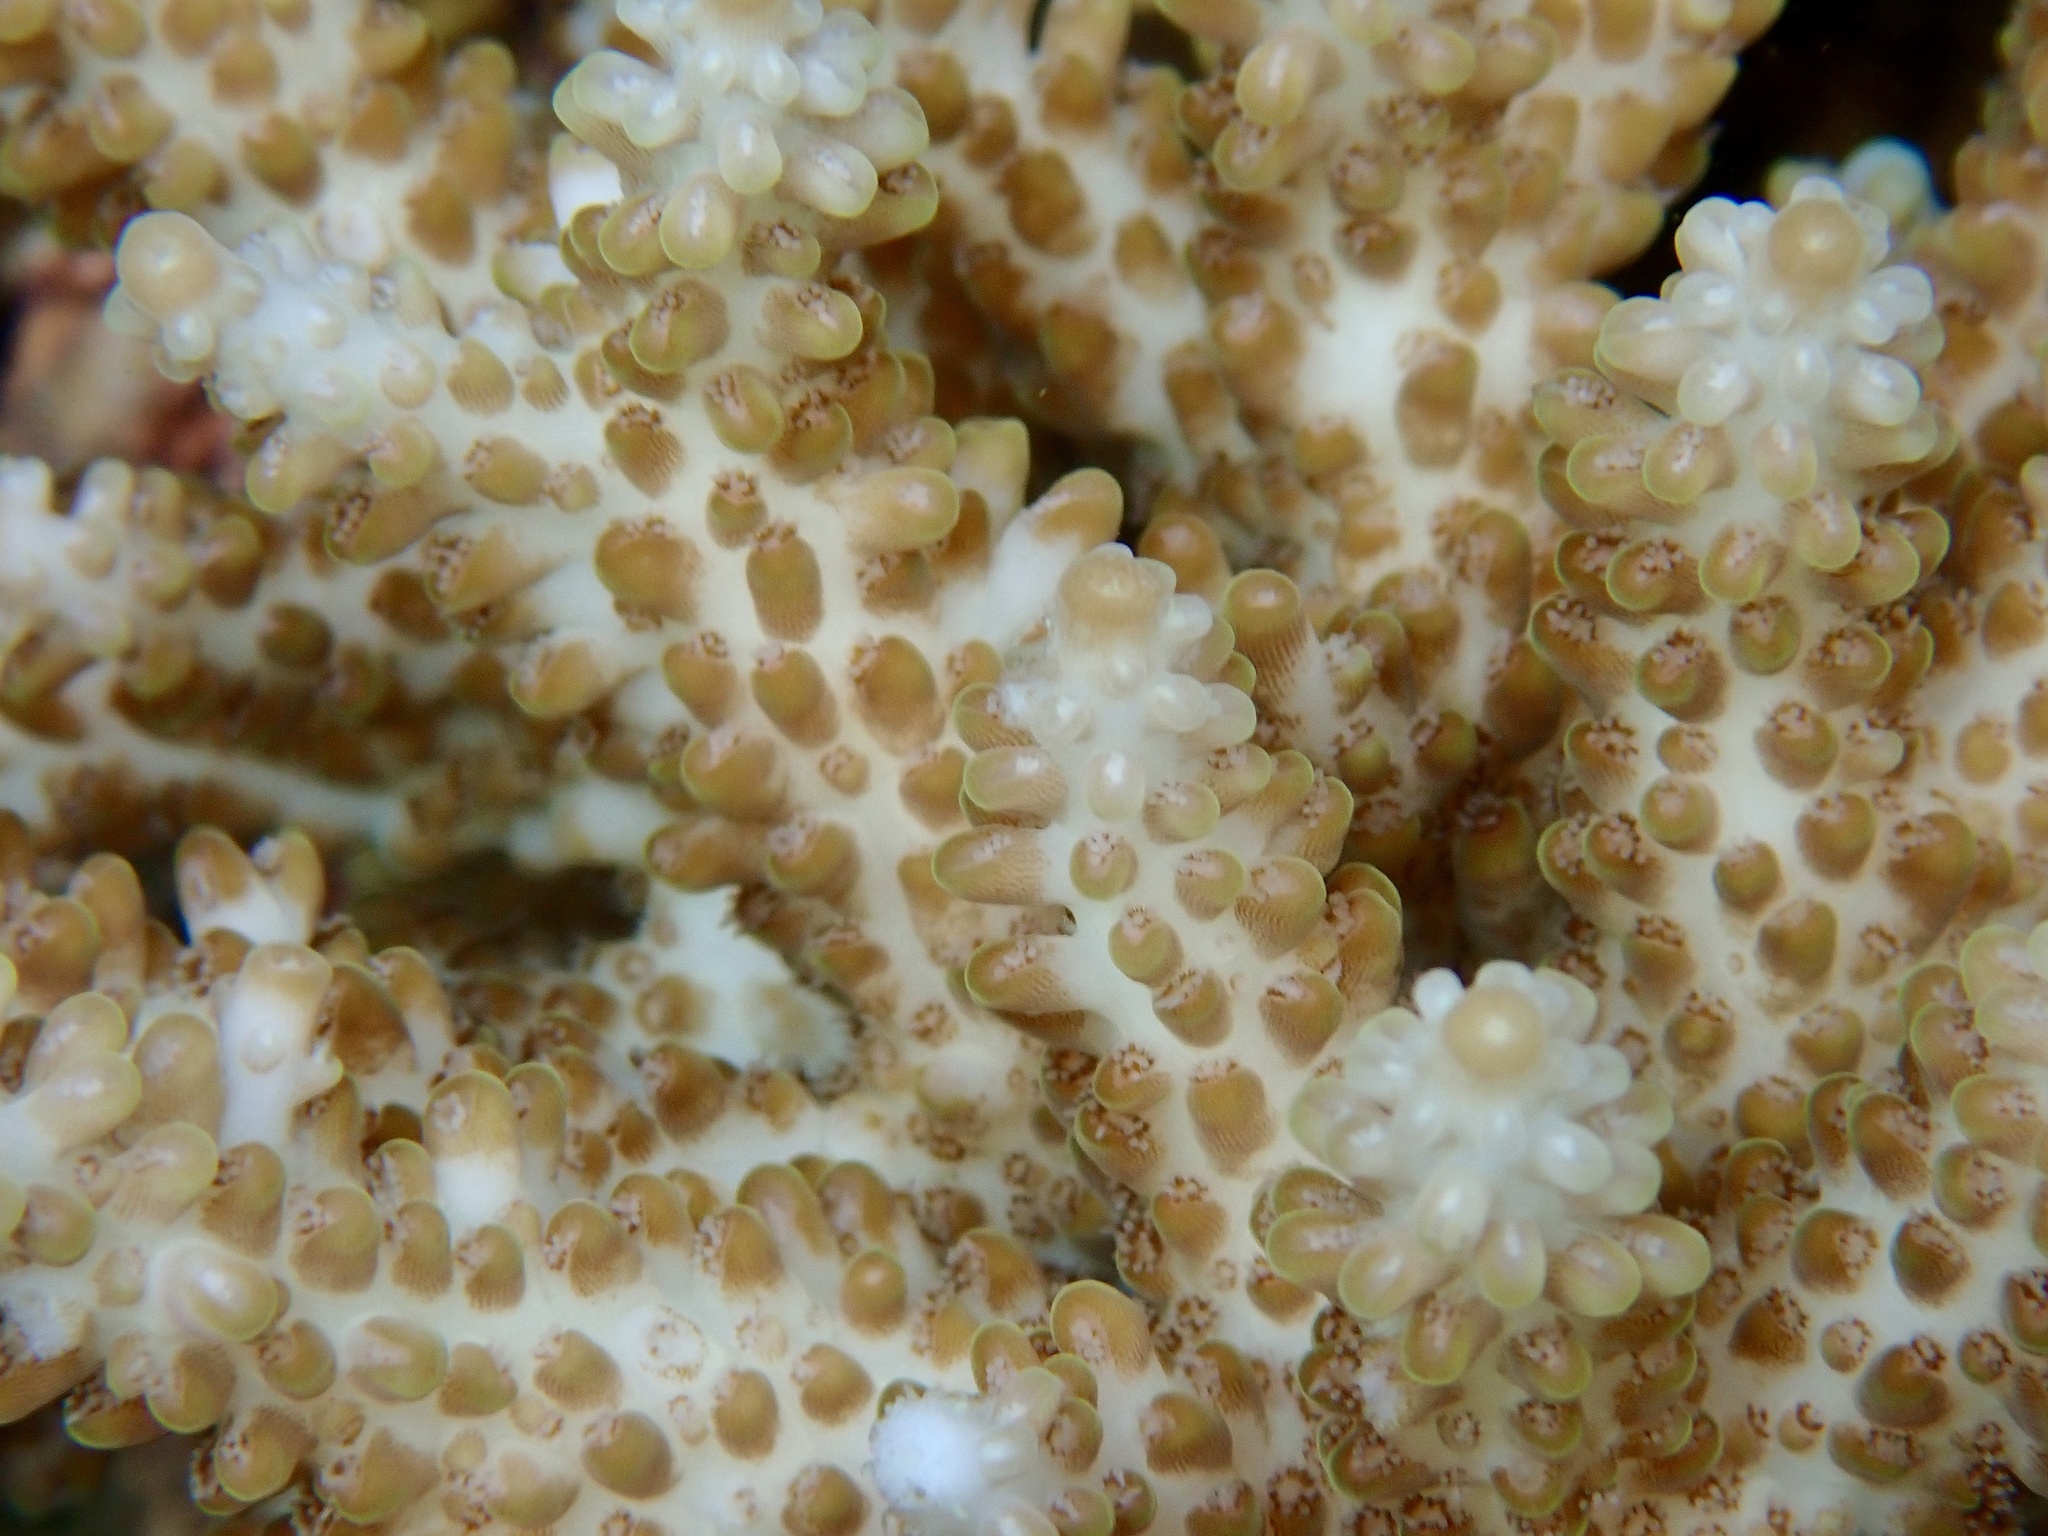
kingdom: Animalia
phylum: Cnidaria
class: Anthozoa
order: Scleractinia
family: Acroporidae
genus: Acropora
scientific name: Acropora microclados
